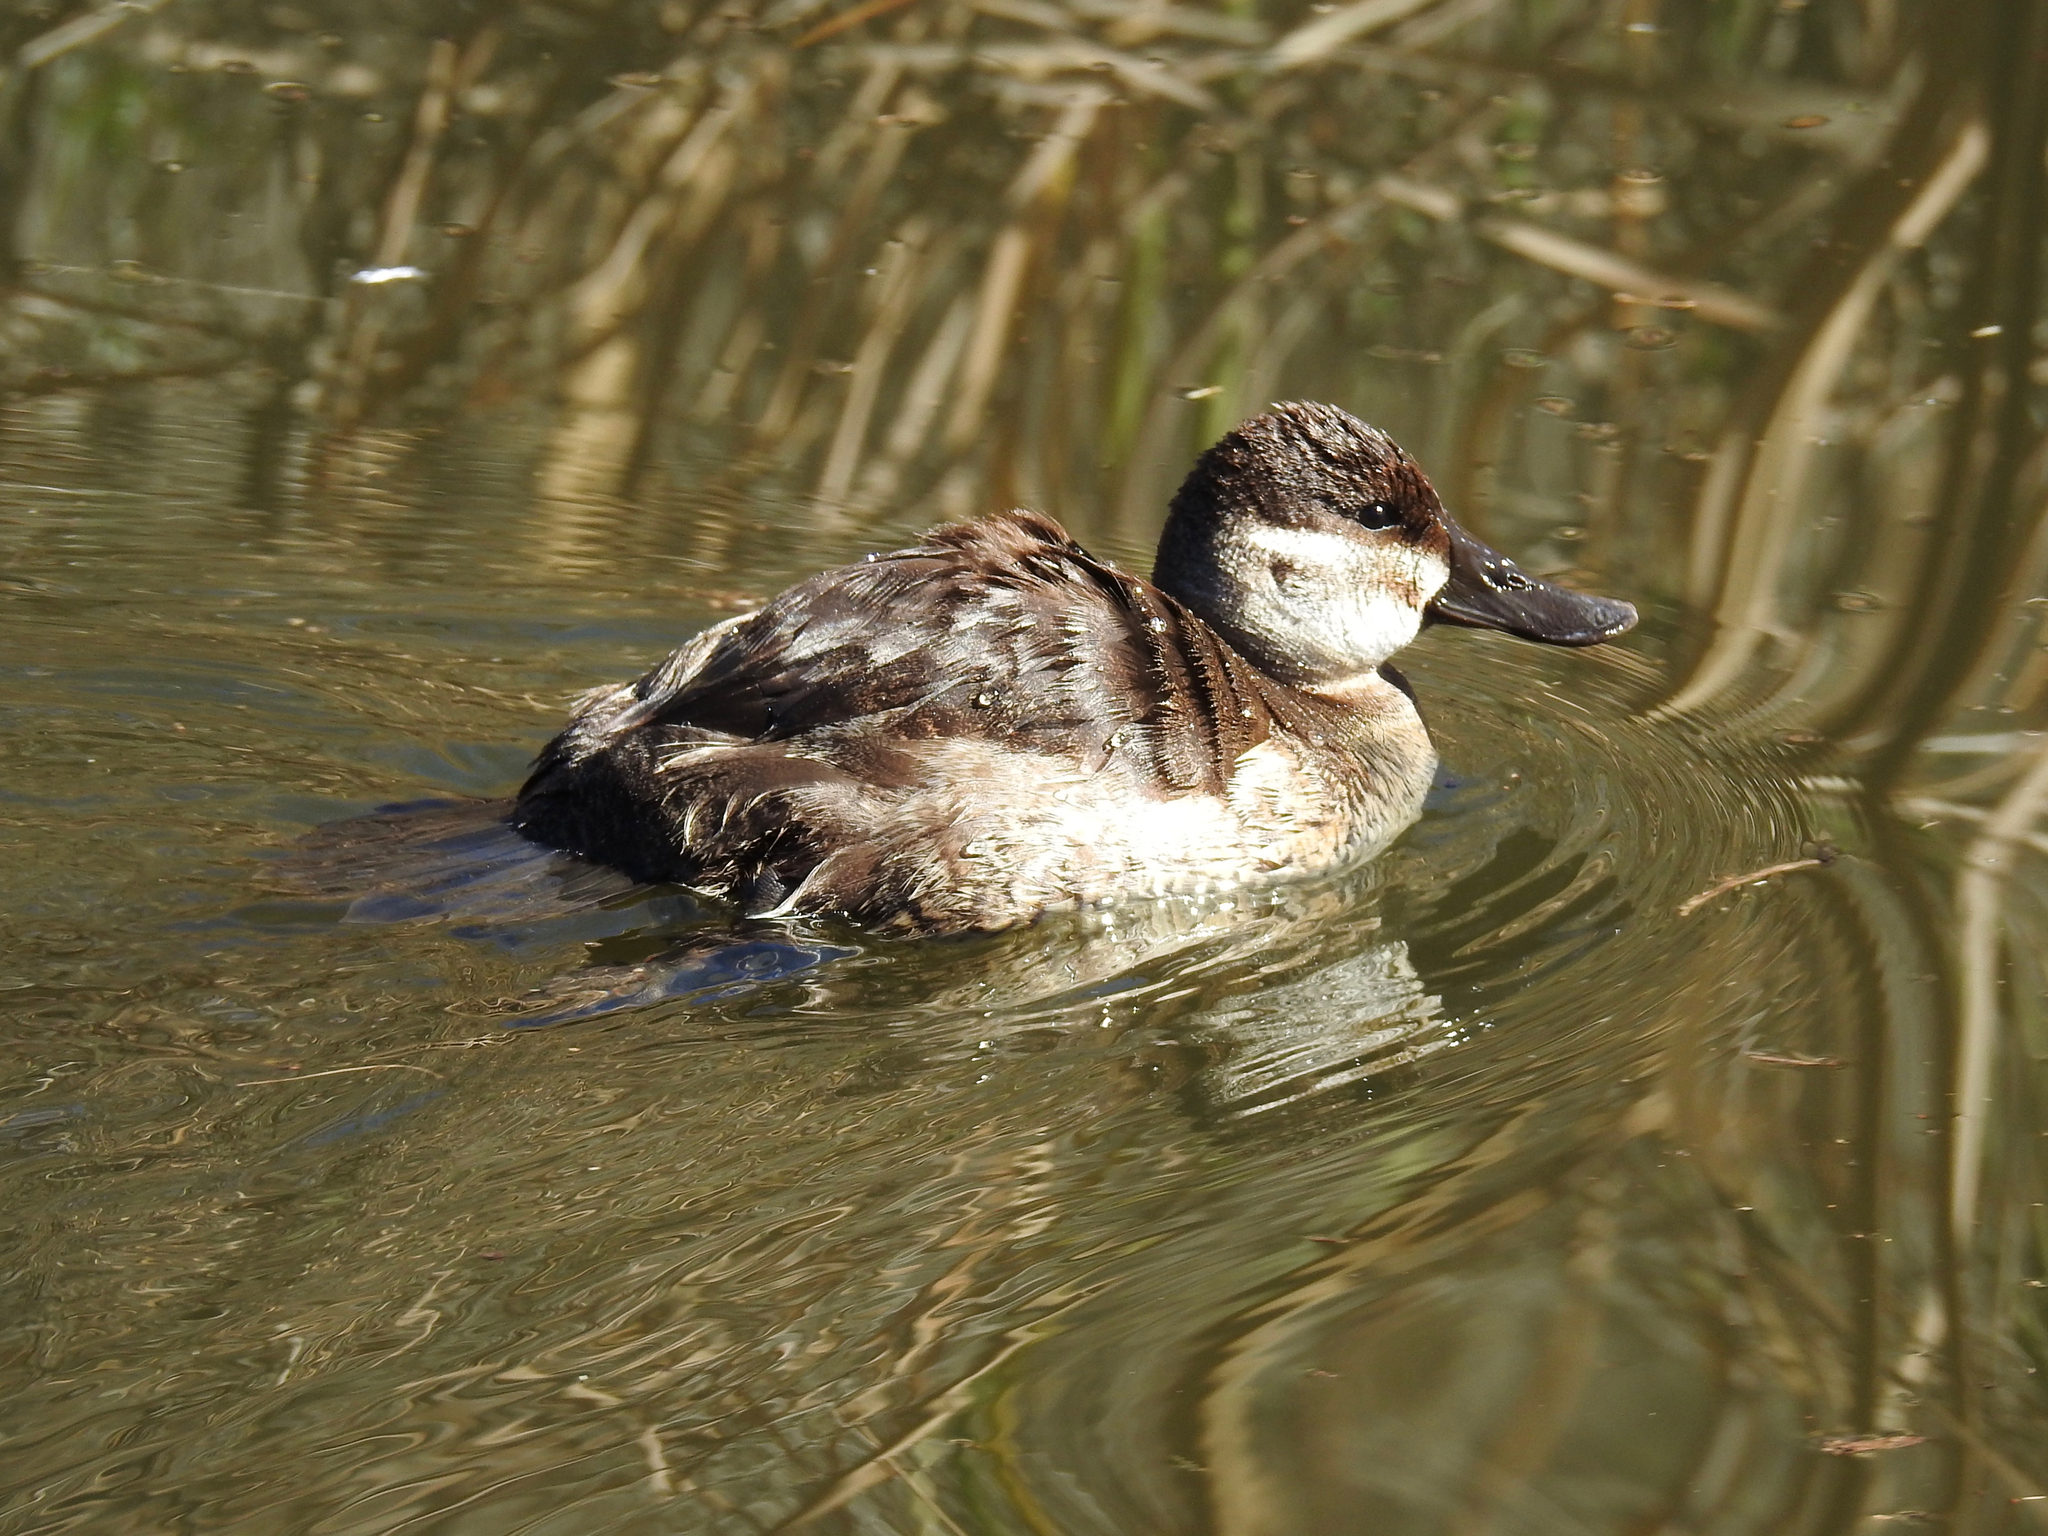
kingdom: Animalia
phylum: Chordata
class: Aves
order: Anseriformes
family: Anatidae
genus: Oxyura
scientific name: Oxyura jamaicensis
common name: Ruddy duck
